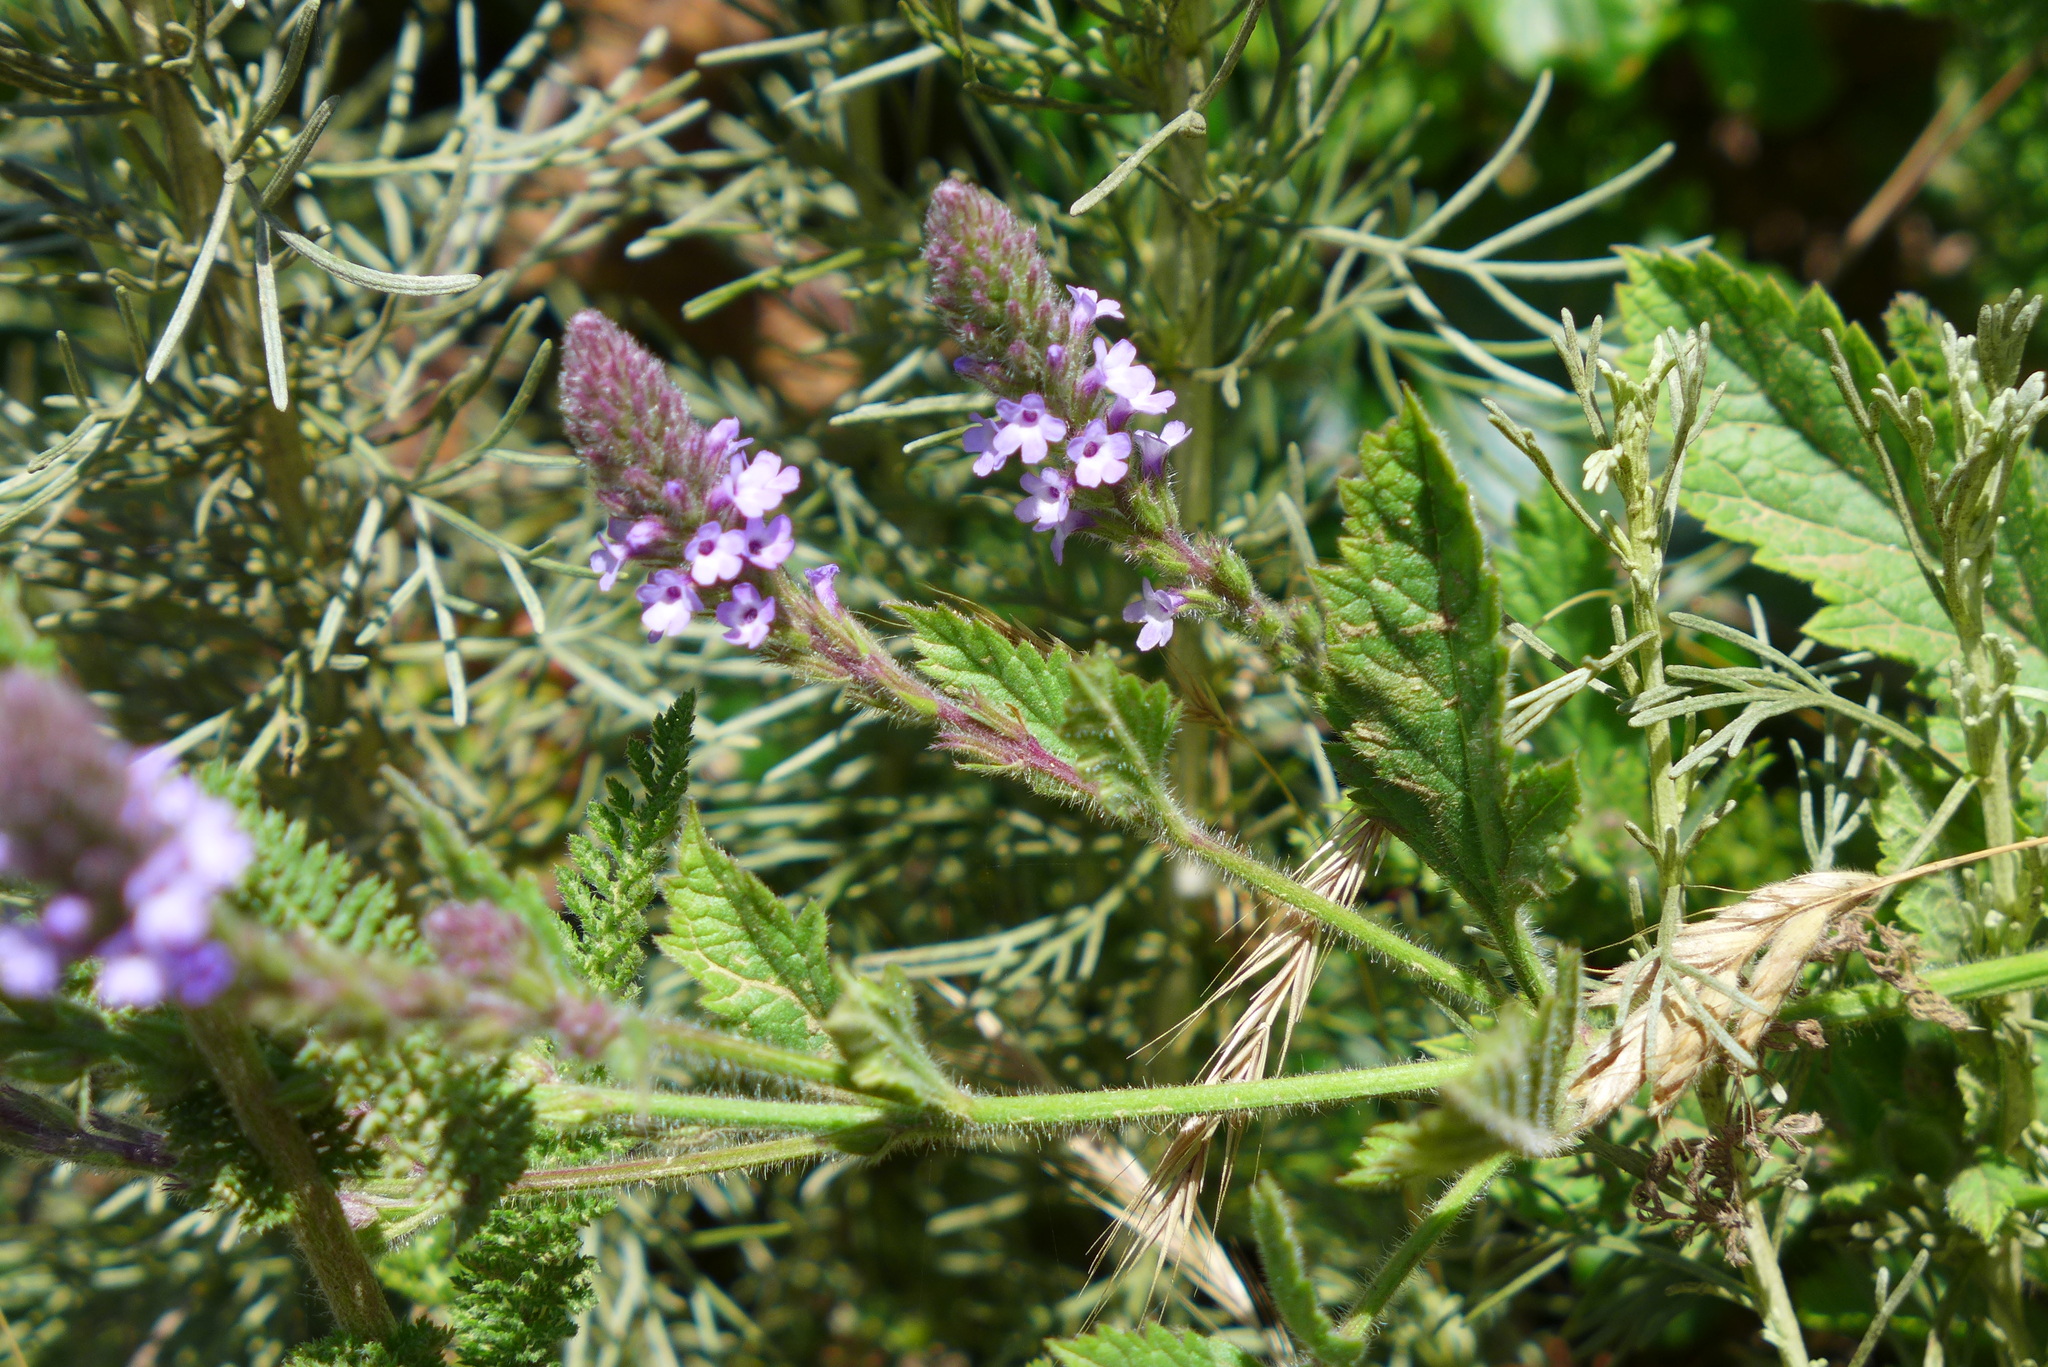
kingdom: Plantae
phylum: Tracheophyta
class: Magnoliopsida
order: Lamiales
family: Verbenaceae
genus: Verbena
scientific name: Verbena lasiostachys
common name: Vervain
